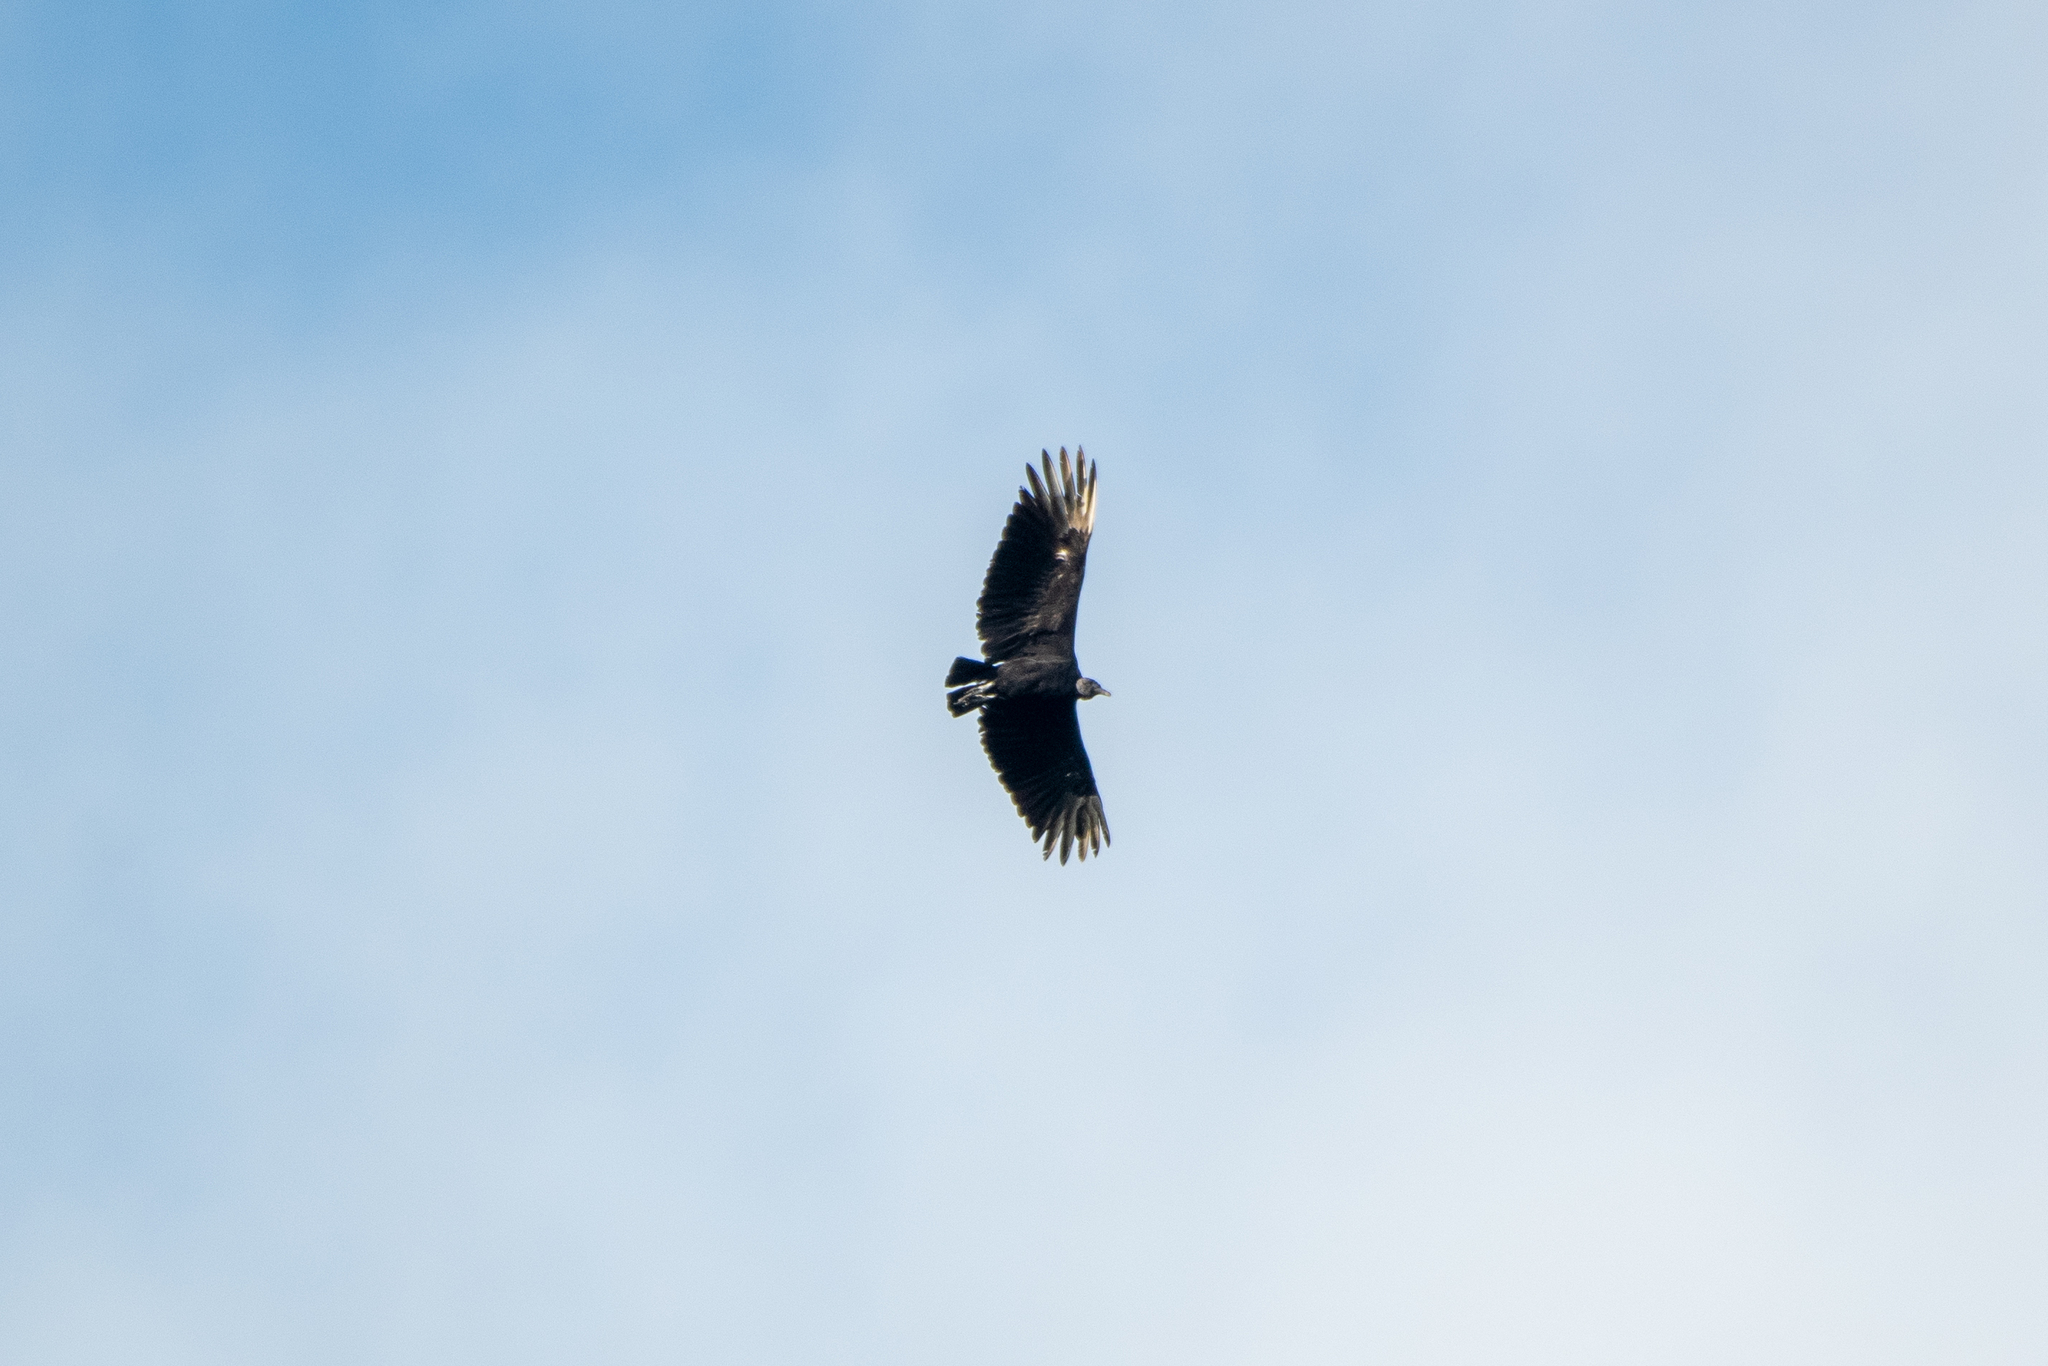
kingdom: Animalia
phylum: Chordata
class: Aves
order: Accipitriformes
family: Cathartidae
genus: Coragyps
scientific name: Coragyps atratus
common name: Black vulture
